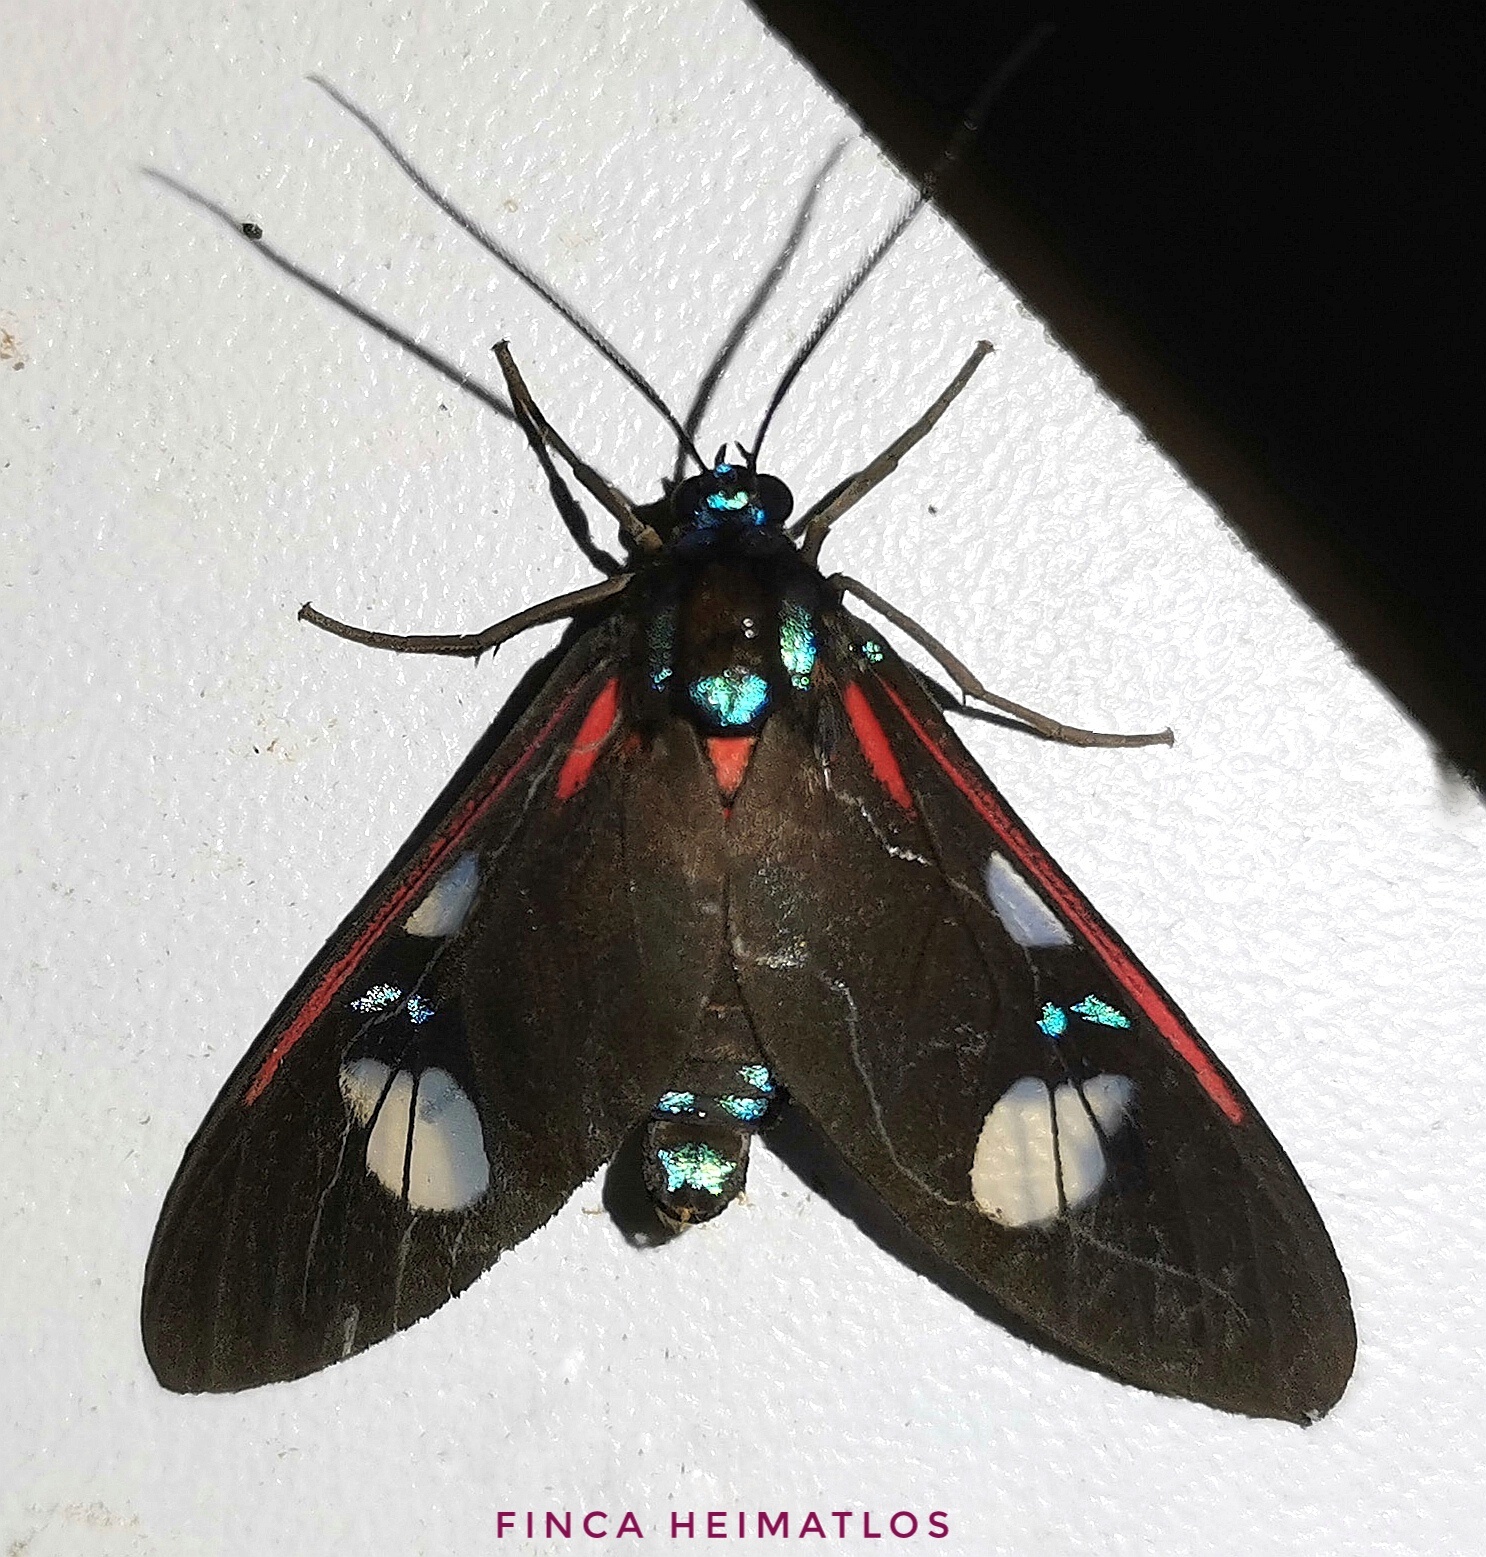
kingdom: Animalia
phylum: Arthropoda
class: Insecta
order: Lepidoptera
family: Erebidae
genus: Euclera
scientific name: Euclera meones
